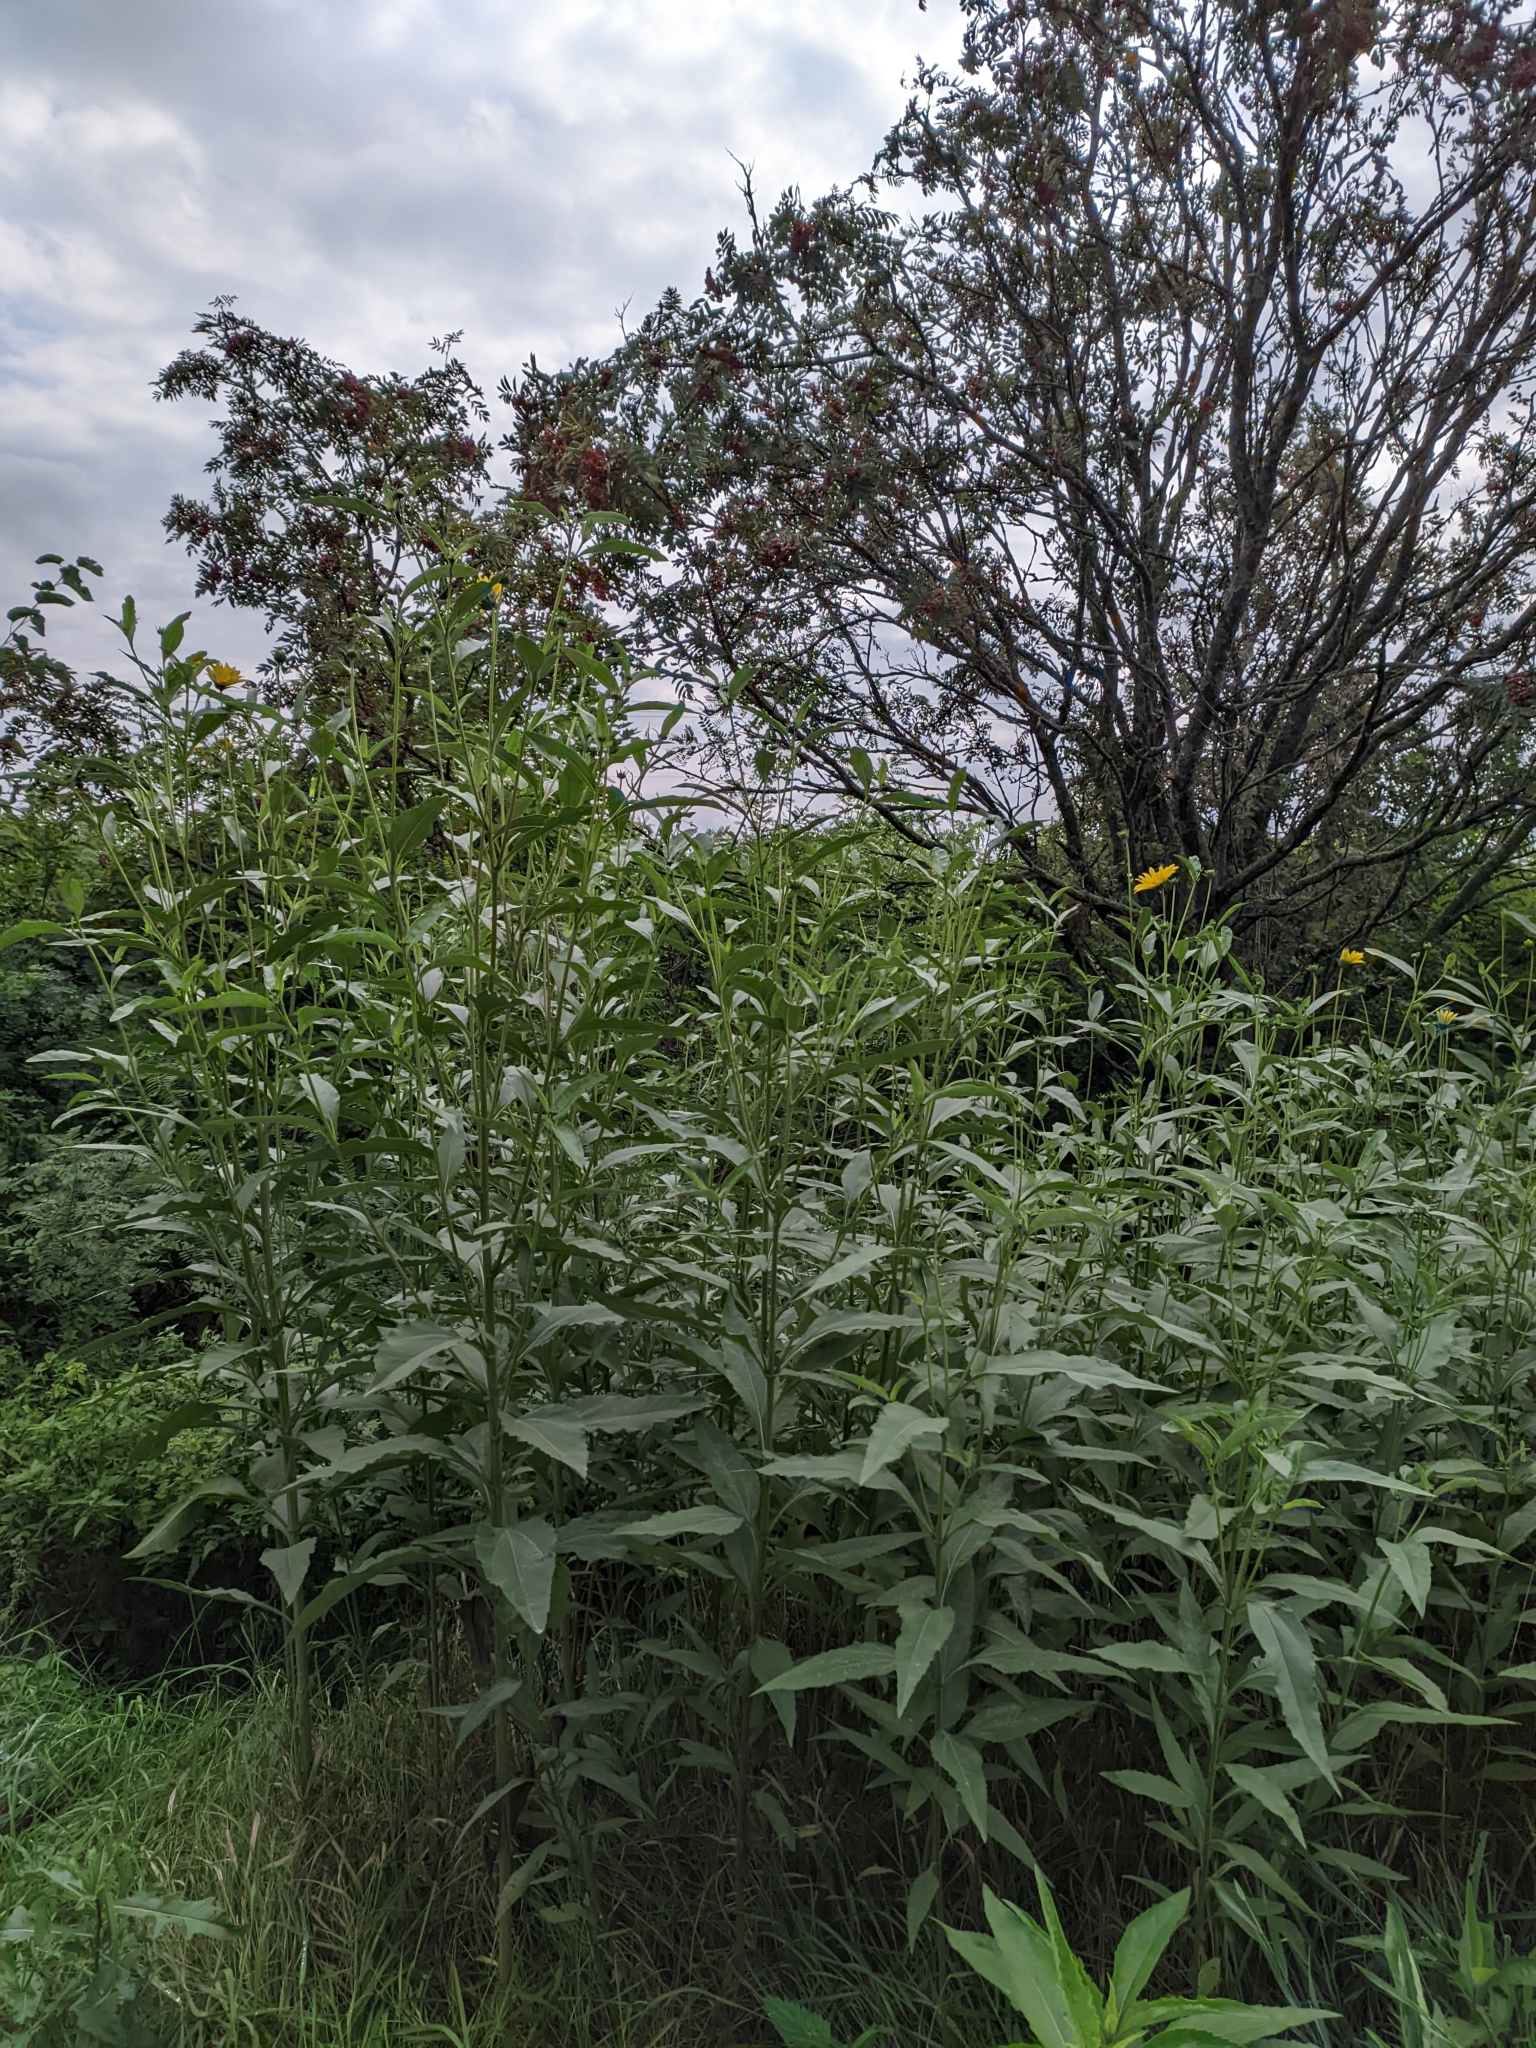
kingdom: Plantae
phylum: Tracheophyta
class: Magnoliopsida
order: Asterales
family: Asteraceae
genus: Helianthus
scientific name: Helianthus tuberosus
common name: Jerusalem artichoke
